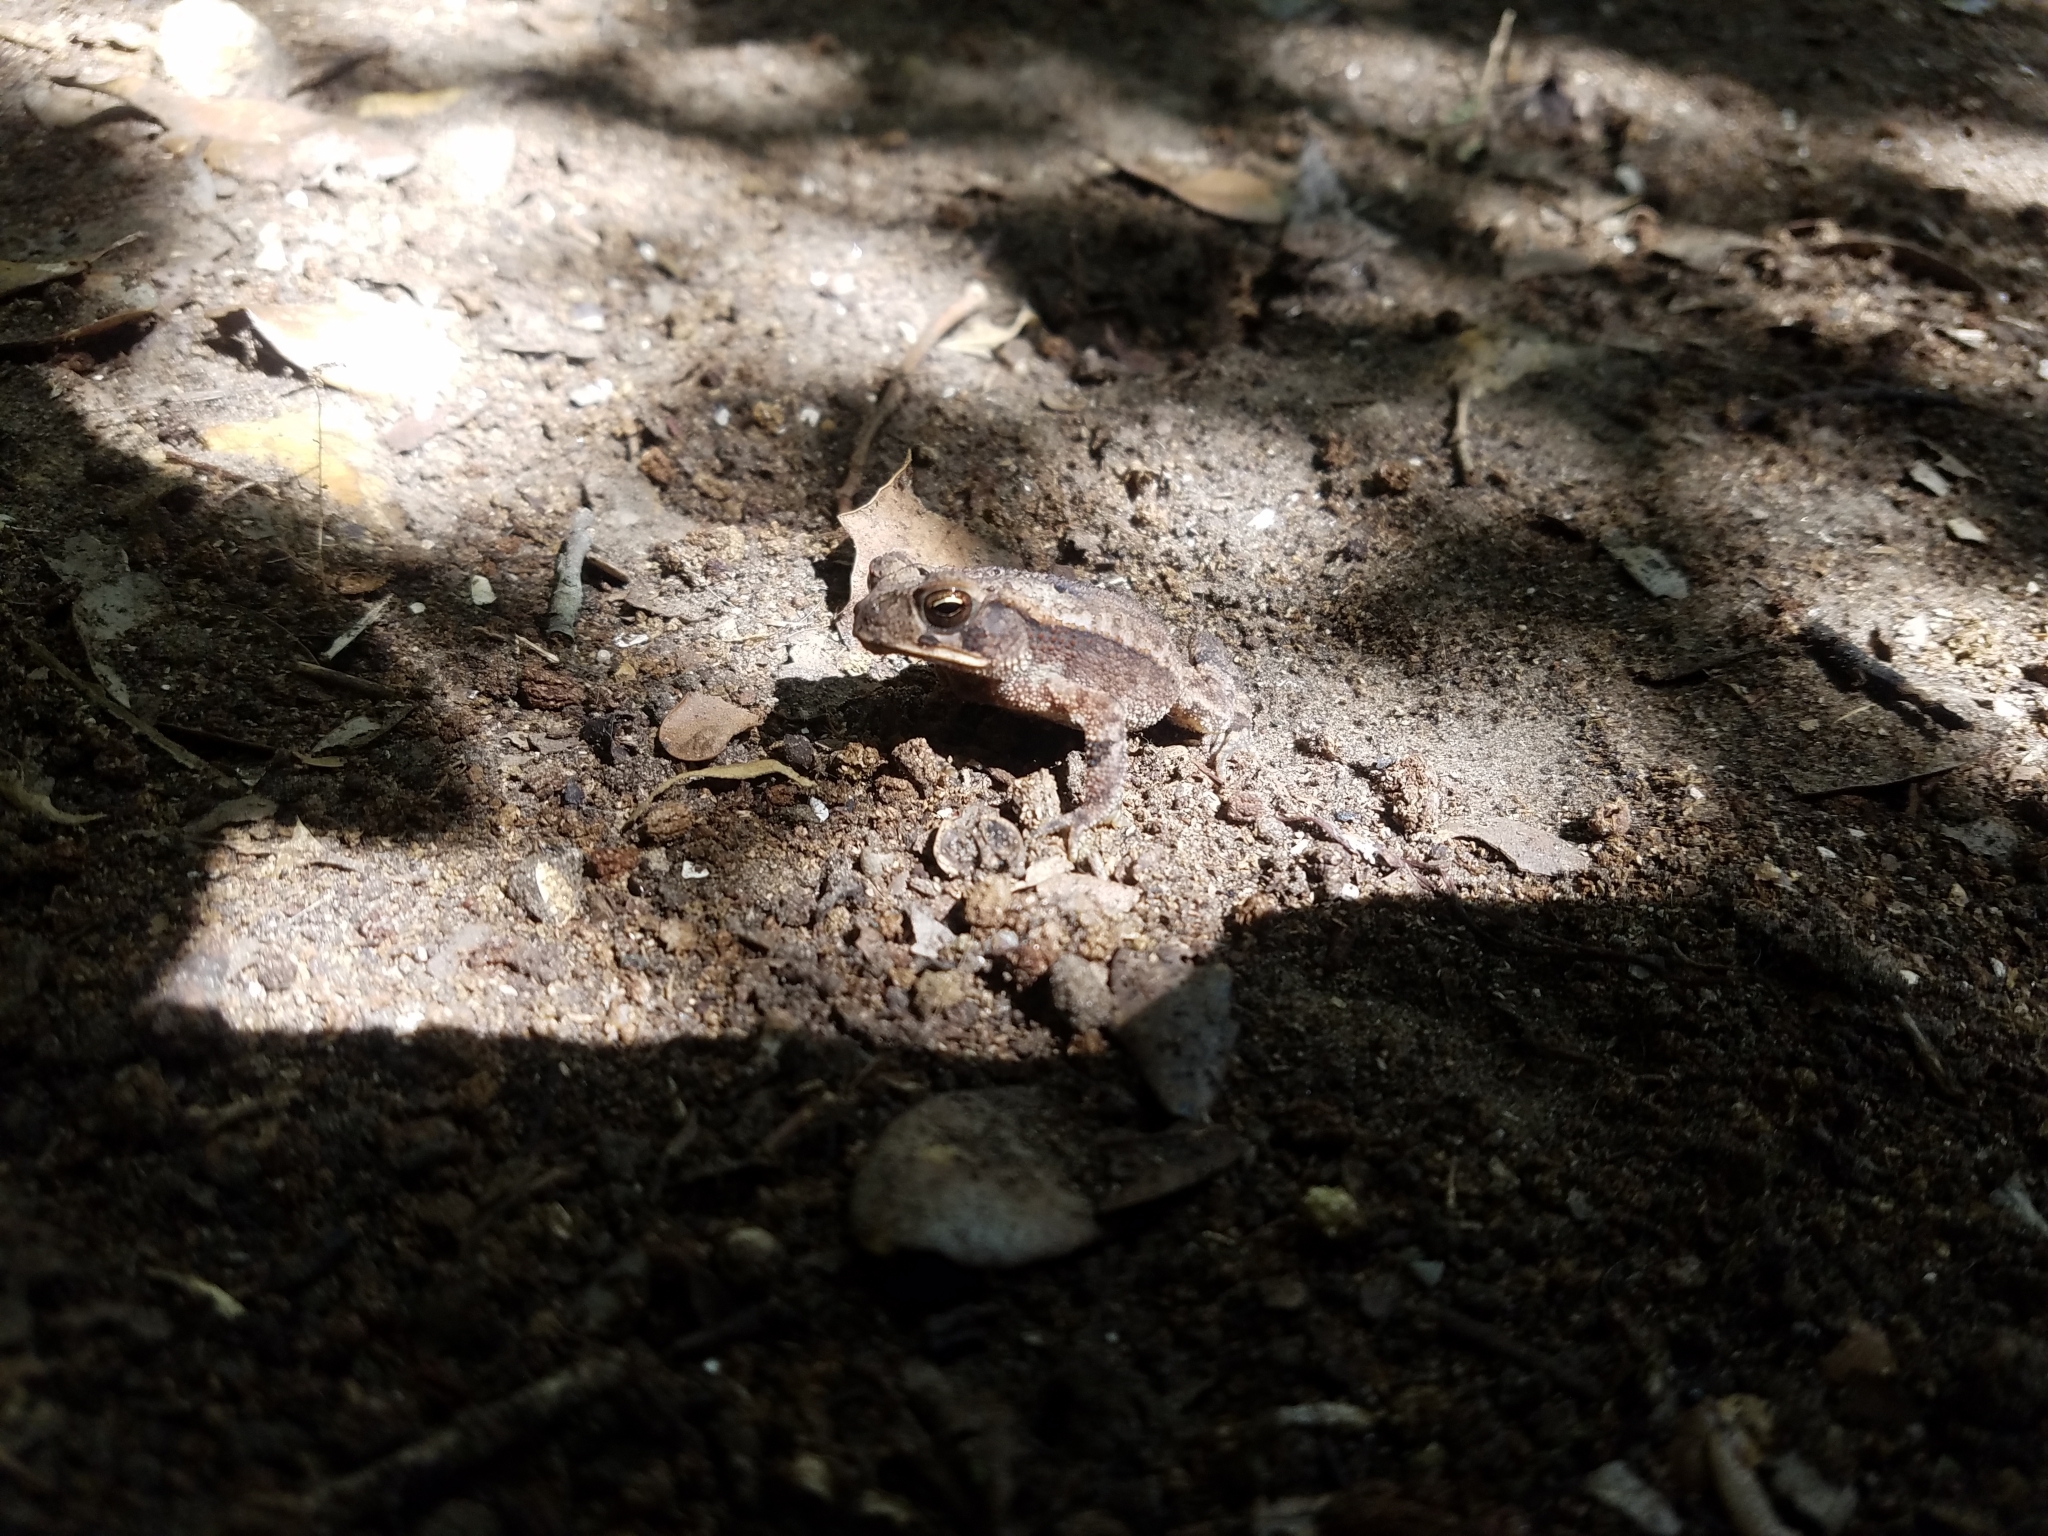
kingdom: Animalia
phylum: Chordata
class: Amphibia
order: Anura
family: Bufonidae
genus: Incilius
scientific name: Incilius nebulifer
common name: Gulf coast toad
